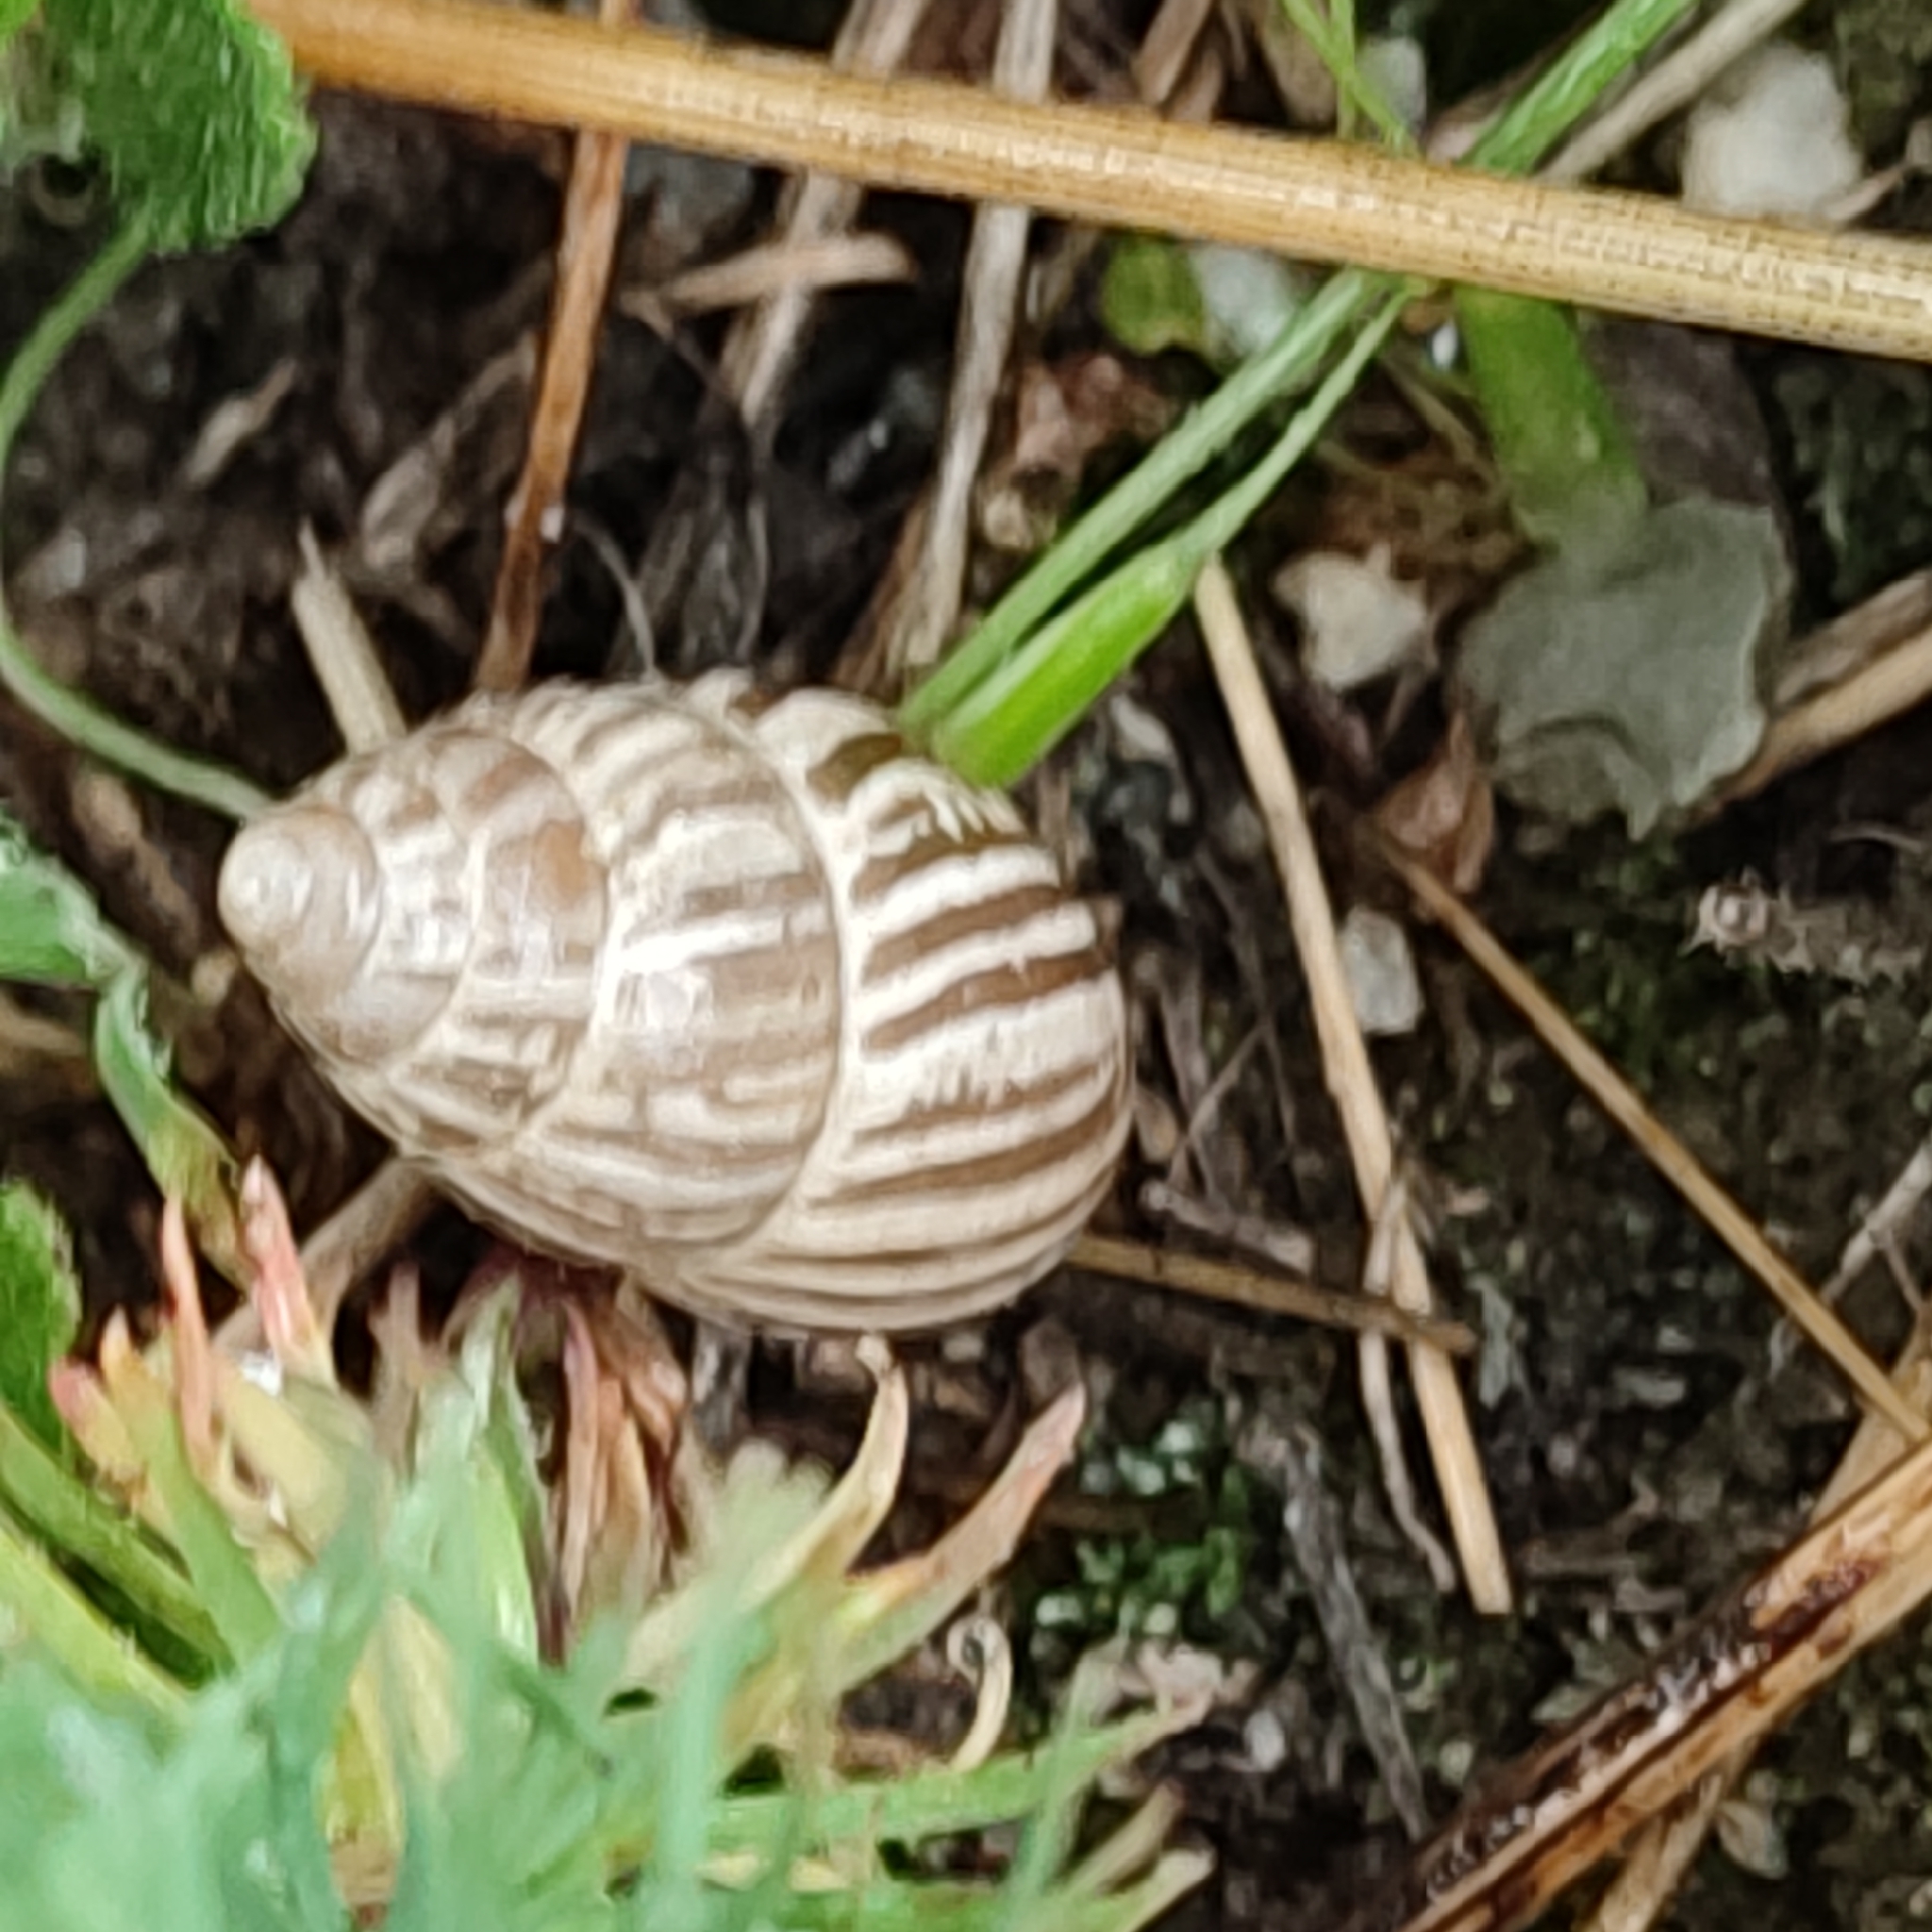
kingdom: Animalia
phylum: Mollusca
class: Gastropoda
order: Stylommatophora
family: Enidae
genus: Zebrina
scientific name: Zebrina detrita
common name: Large bulin
